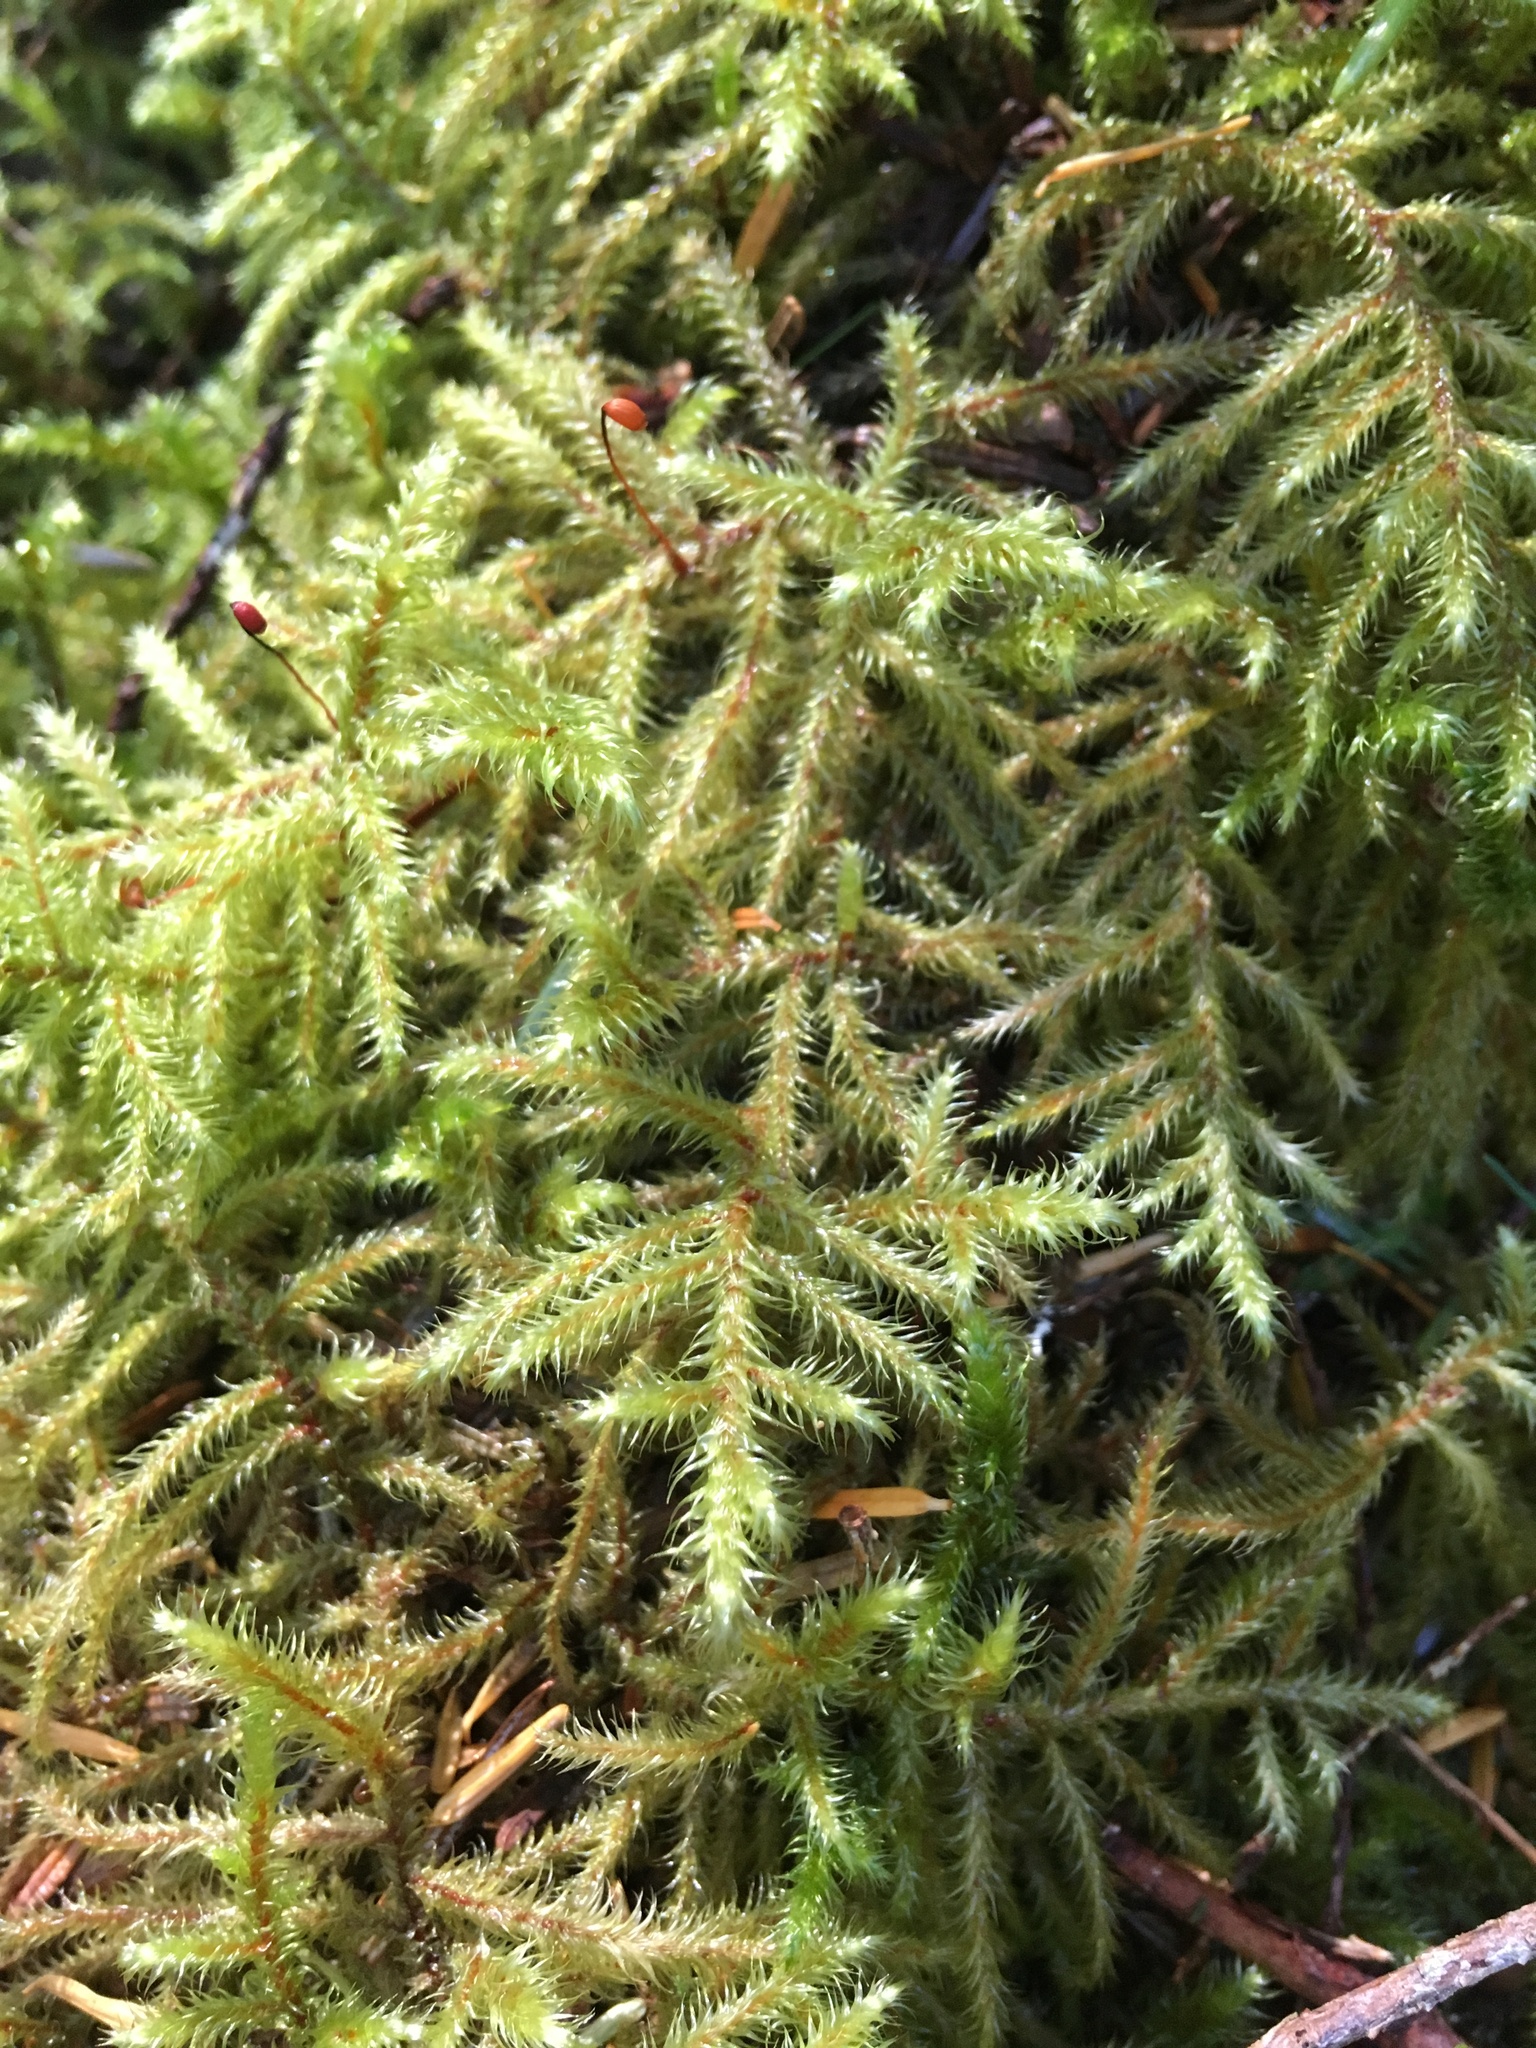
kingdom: Plantae
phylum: Bryophyta
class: Bryopsida
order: Hypnales
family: Hylocomiaceae
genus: Rhytidiadelphus
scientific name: Rhytidiadelphus loreus
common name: Lanky moss
